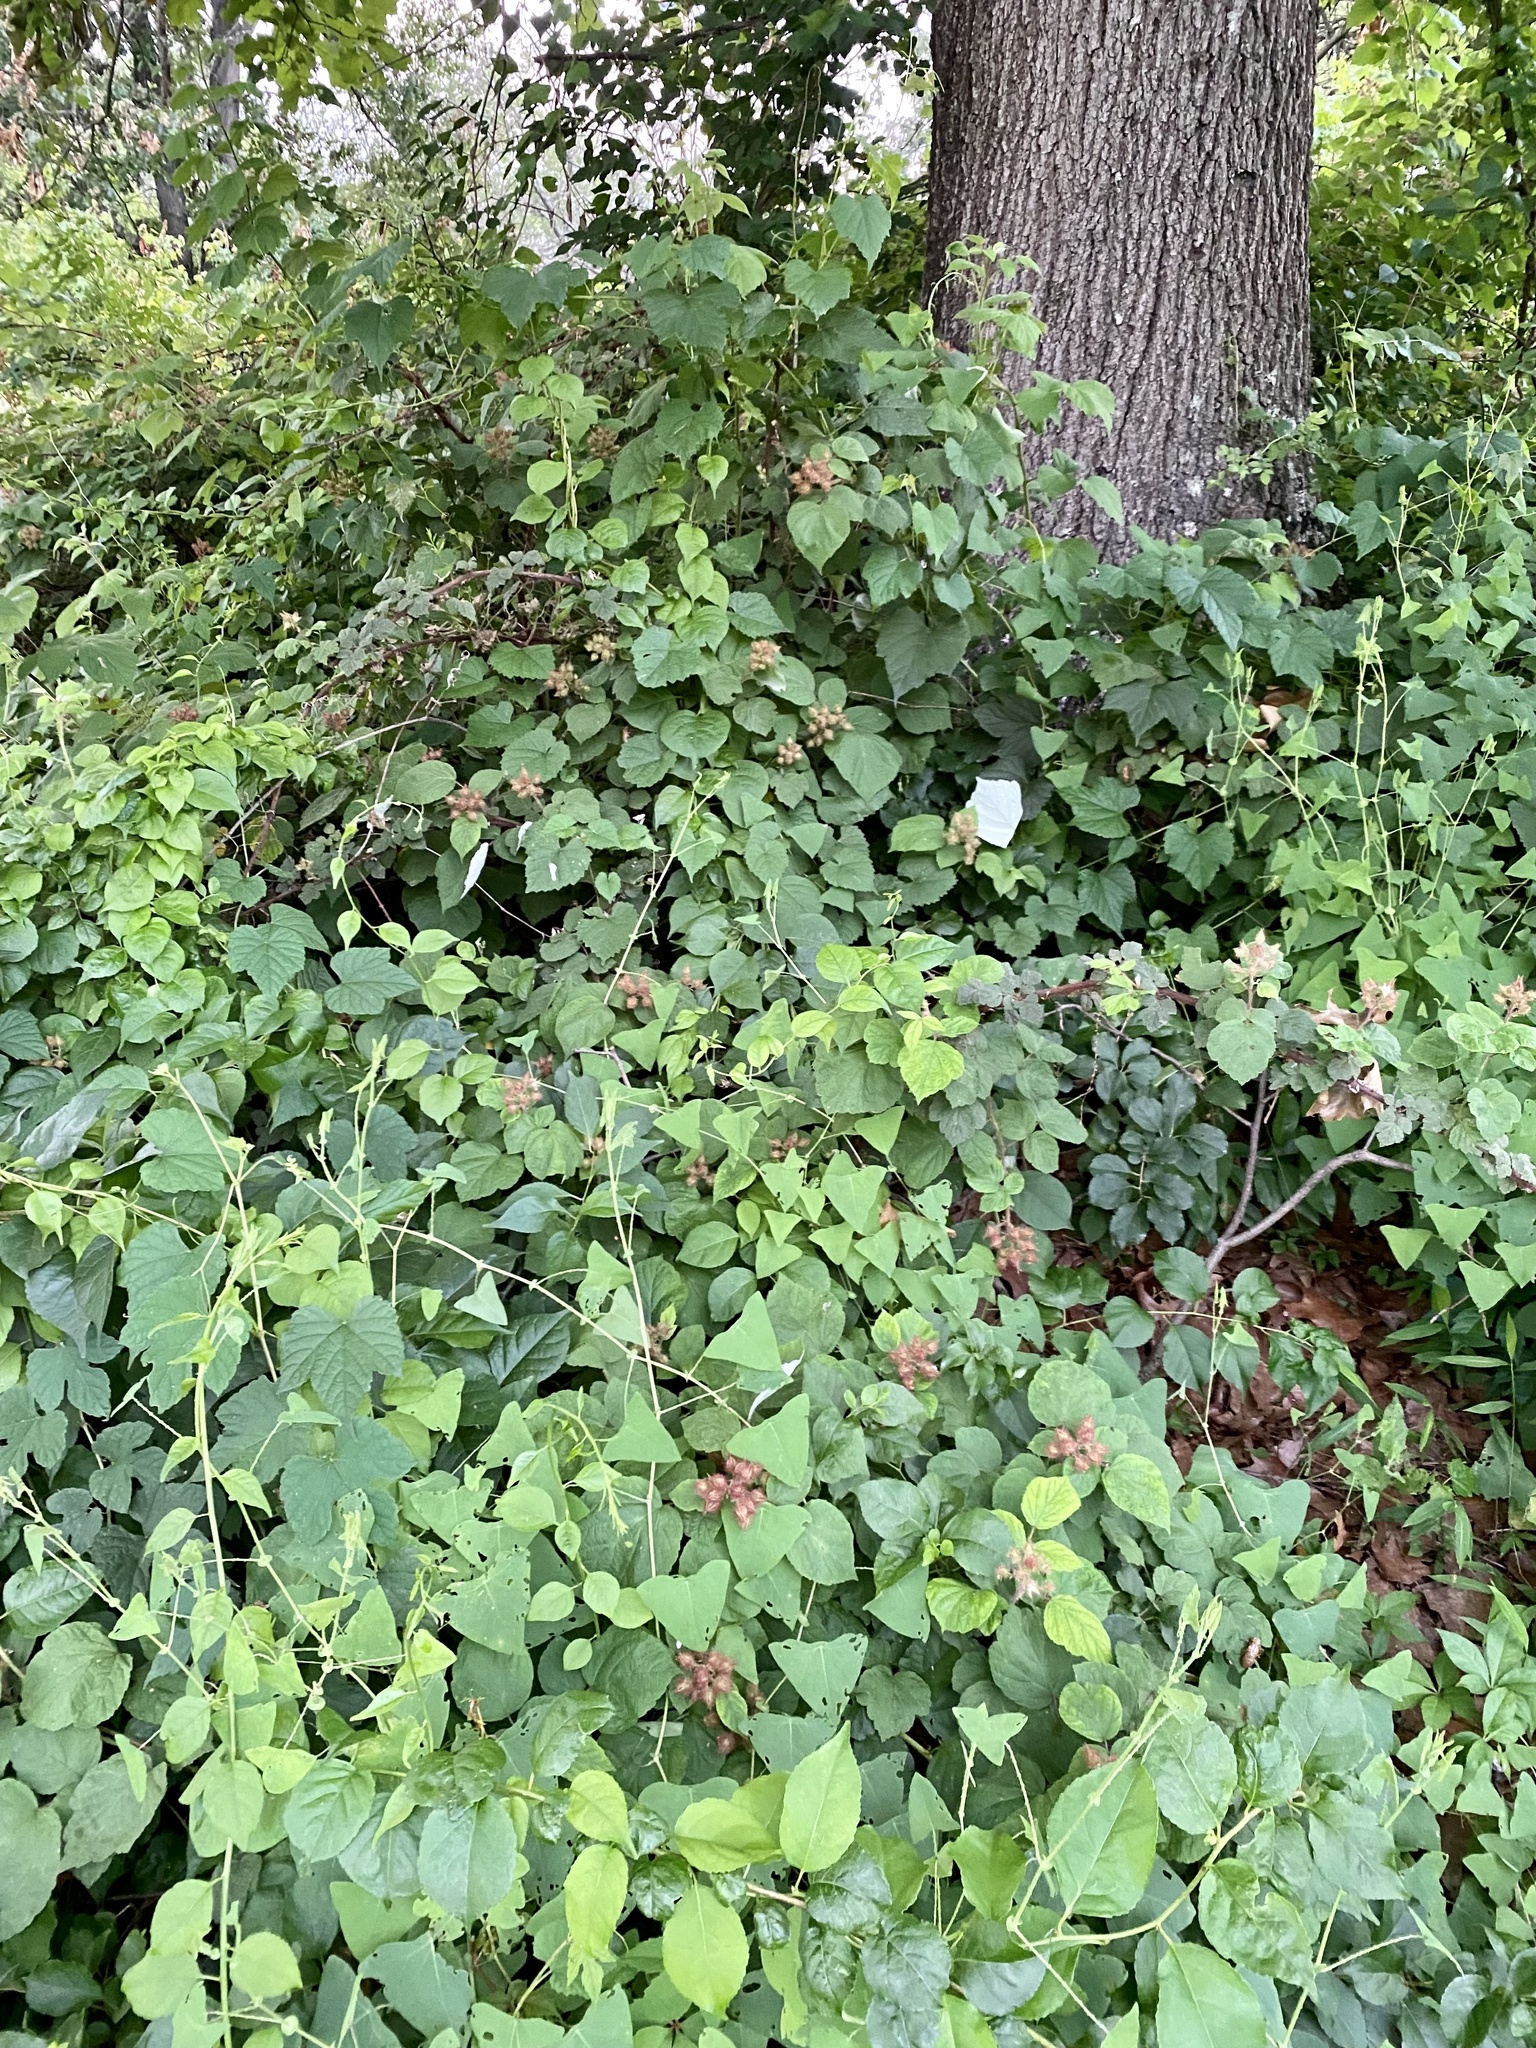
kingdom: Plantae
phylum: Tracheophyta
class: Magnoliopsida
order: Rosales
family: Rosaceae
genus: Rubus
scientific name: Rubus phoenicolasius
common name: Japanese wineberry
